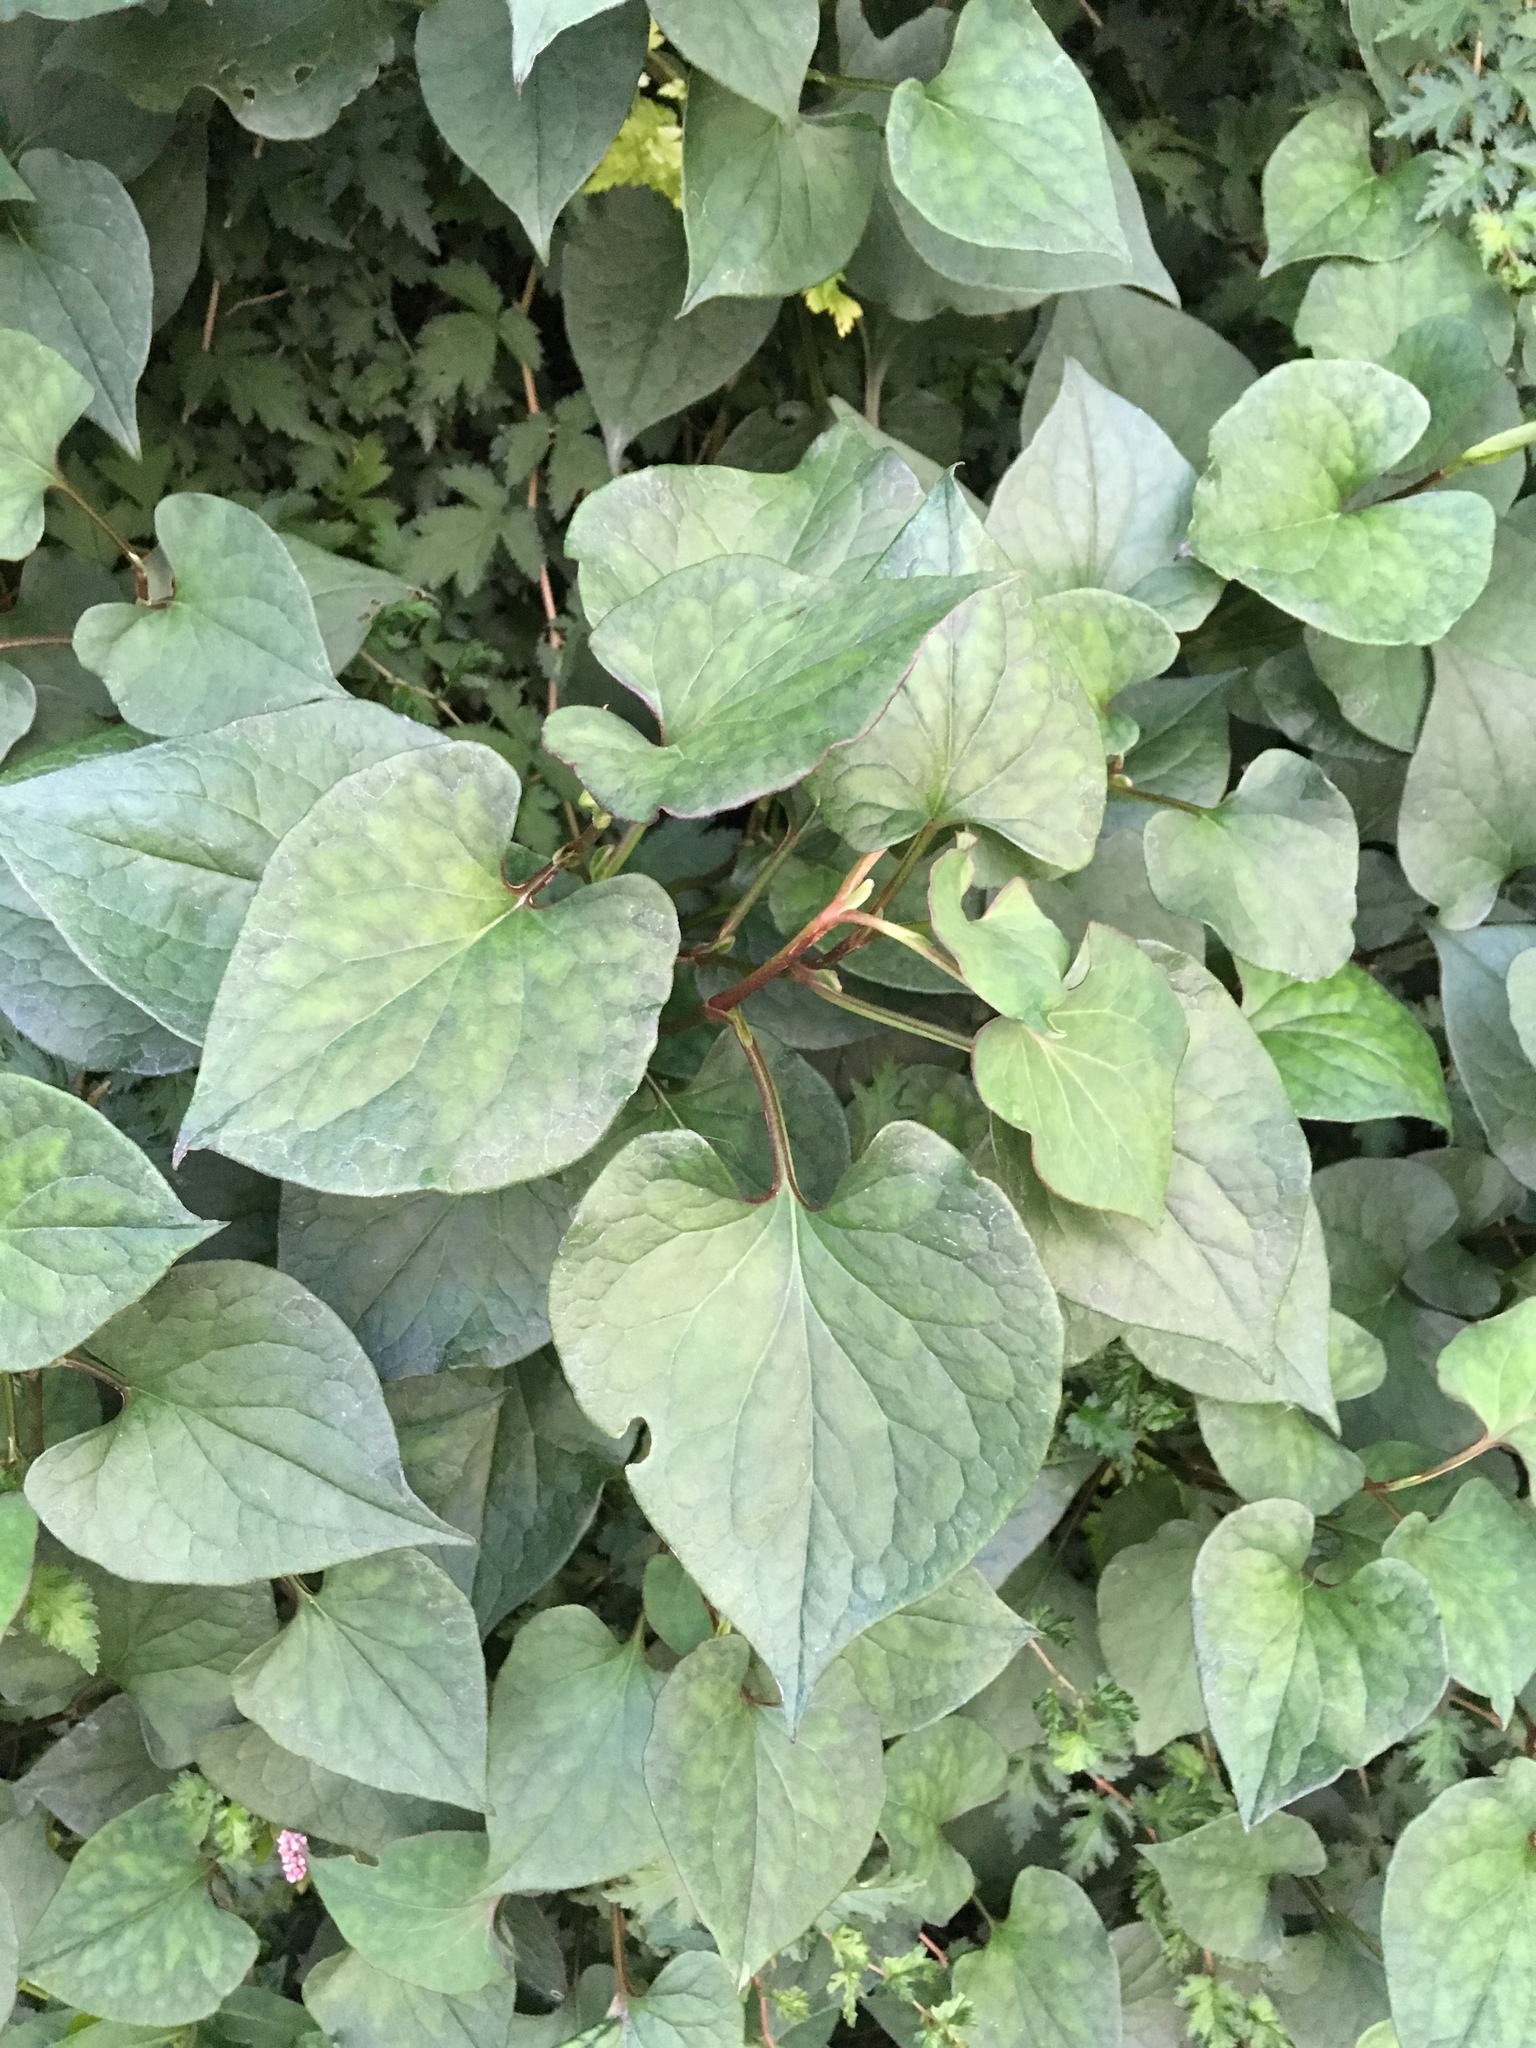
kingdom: Plantae
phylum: Tracheophyta
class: Magnoliopsida
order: Piperales
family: Saururaceae
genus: Houttuynia
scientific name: Houttuynia cordata
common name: Chameleon
